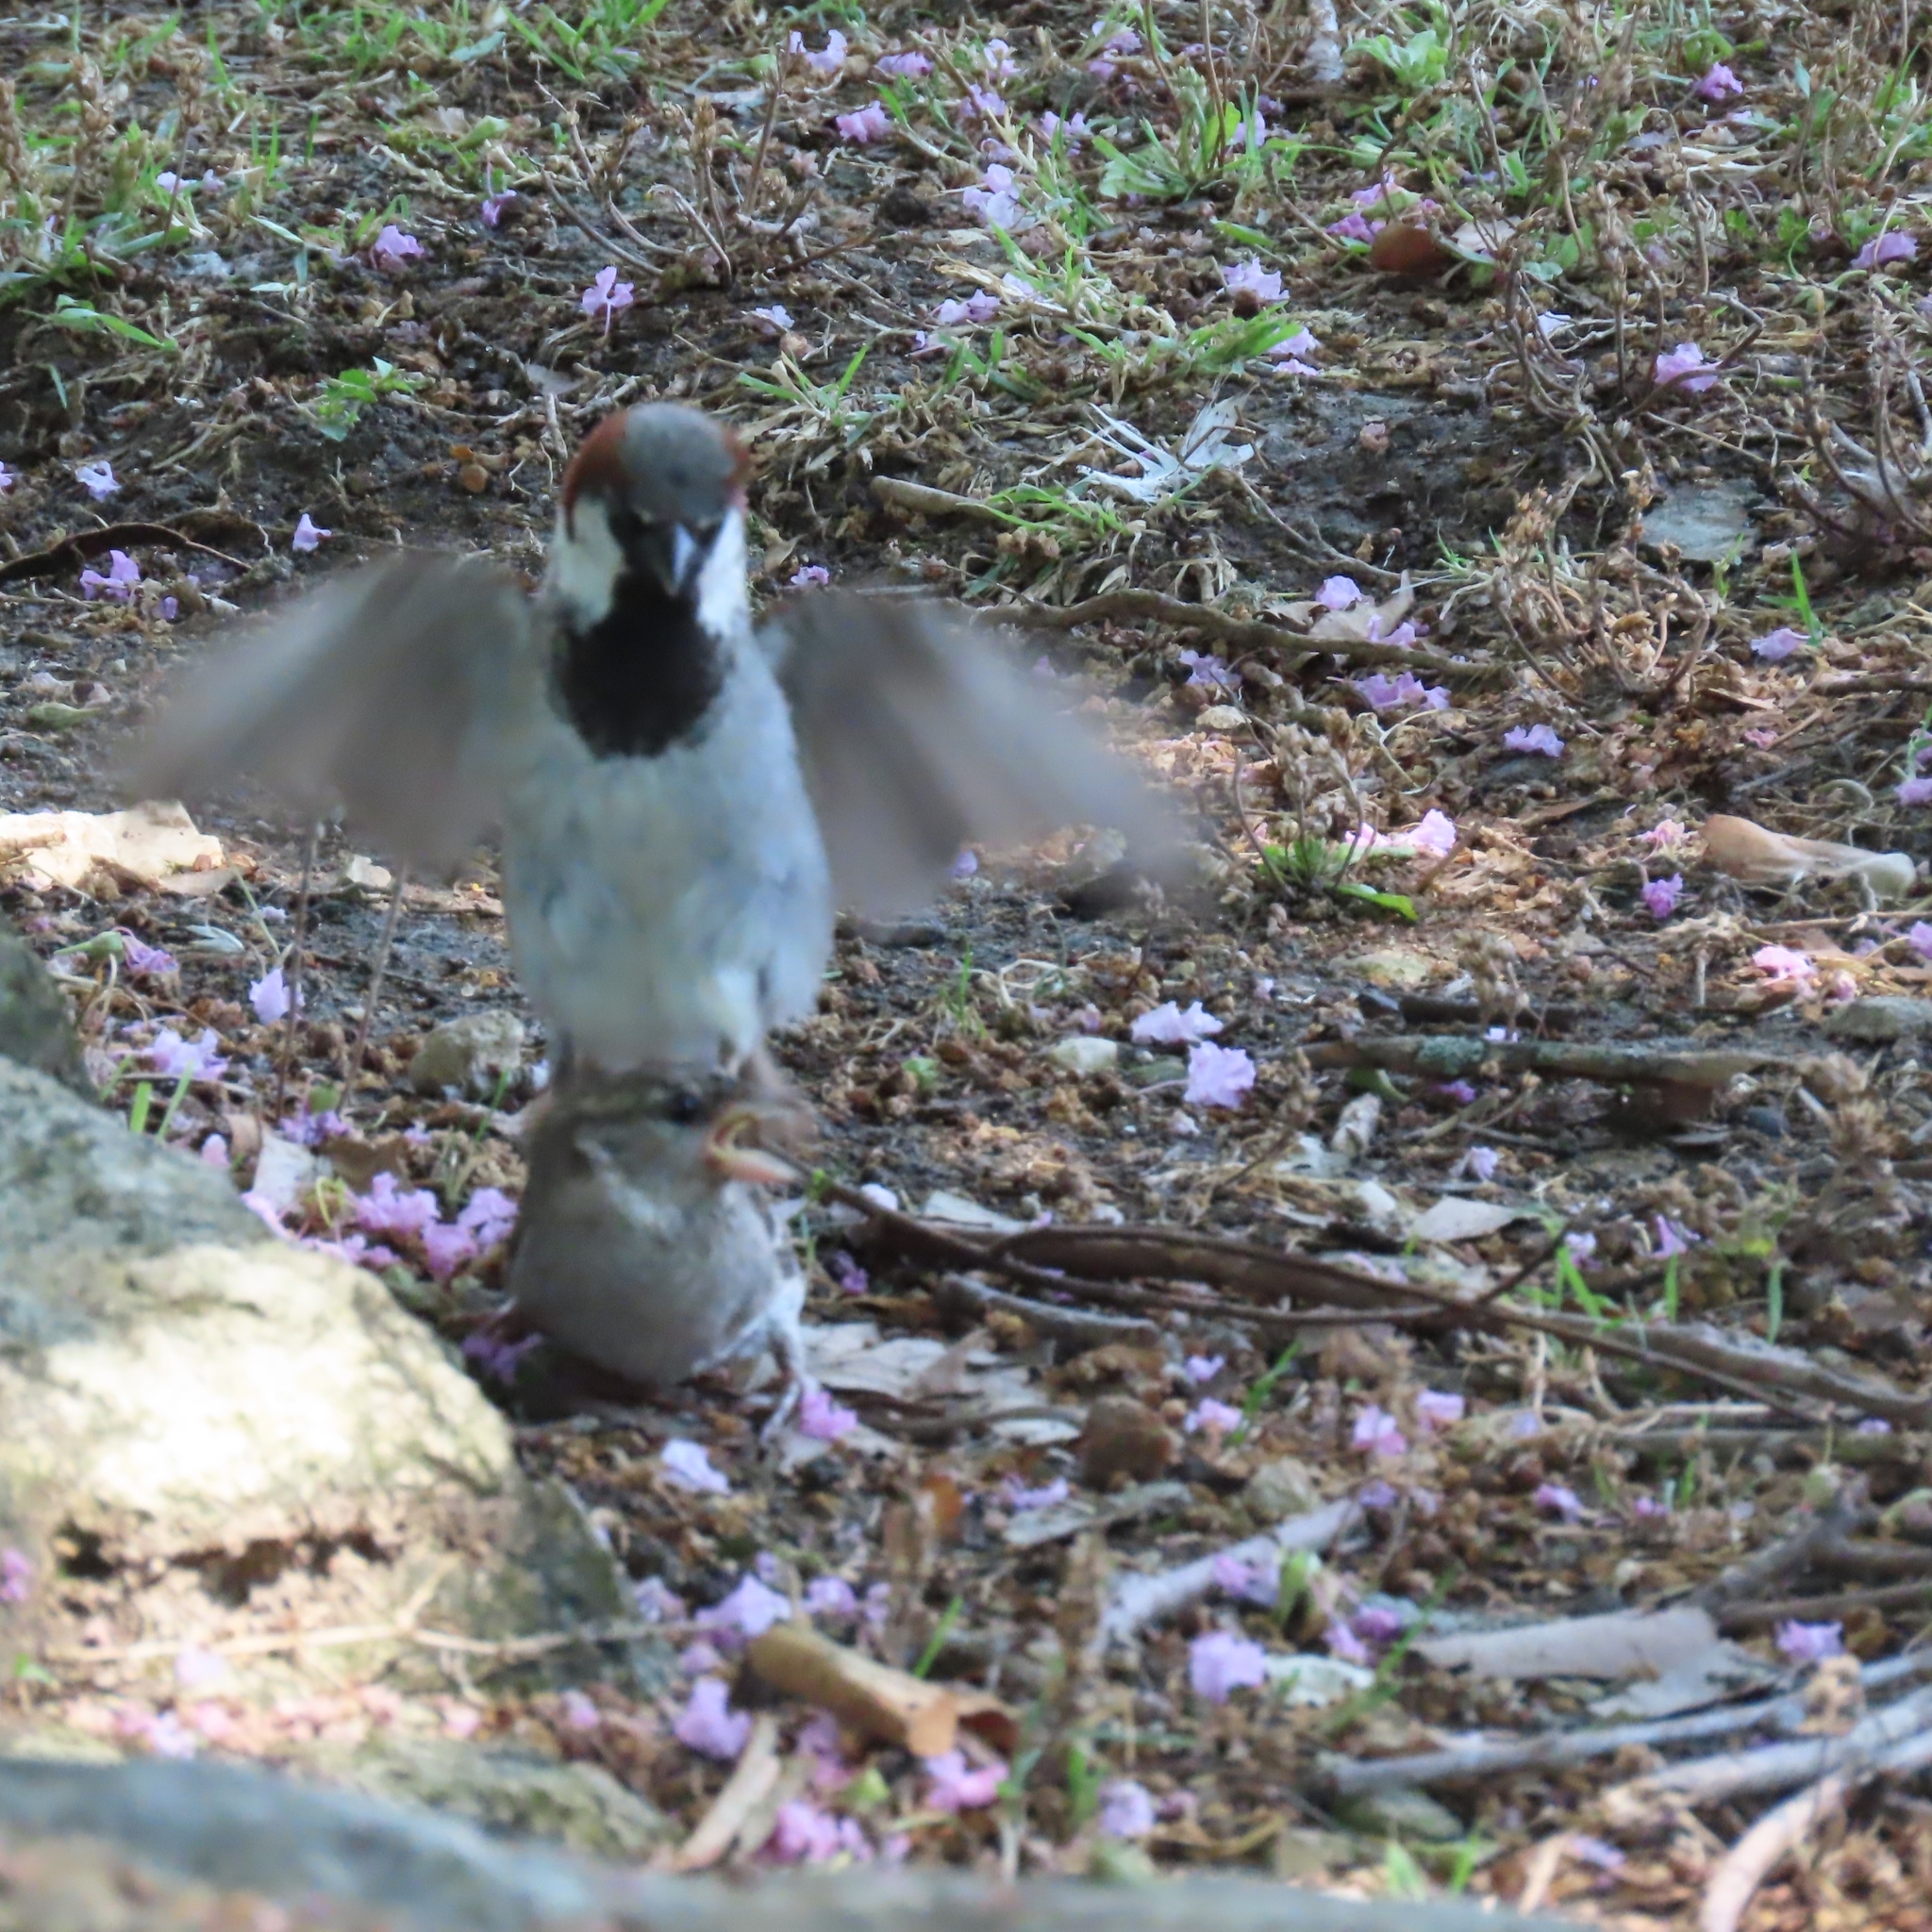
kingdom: Animalia
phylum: Chordata
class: Aves
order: Passeriformes
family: Passeridae
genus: Passer
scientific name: Passer domesticus
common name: House sparrow
